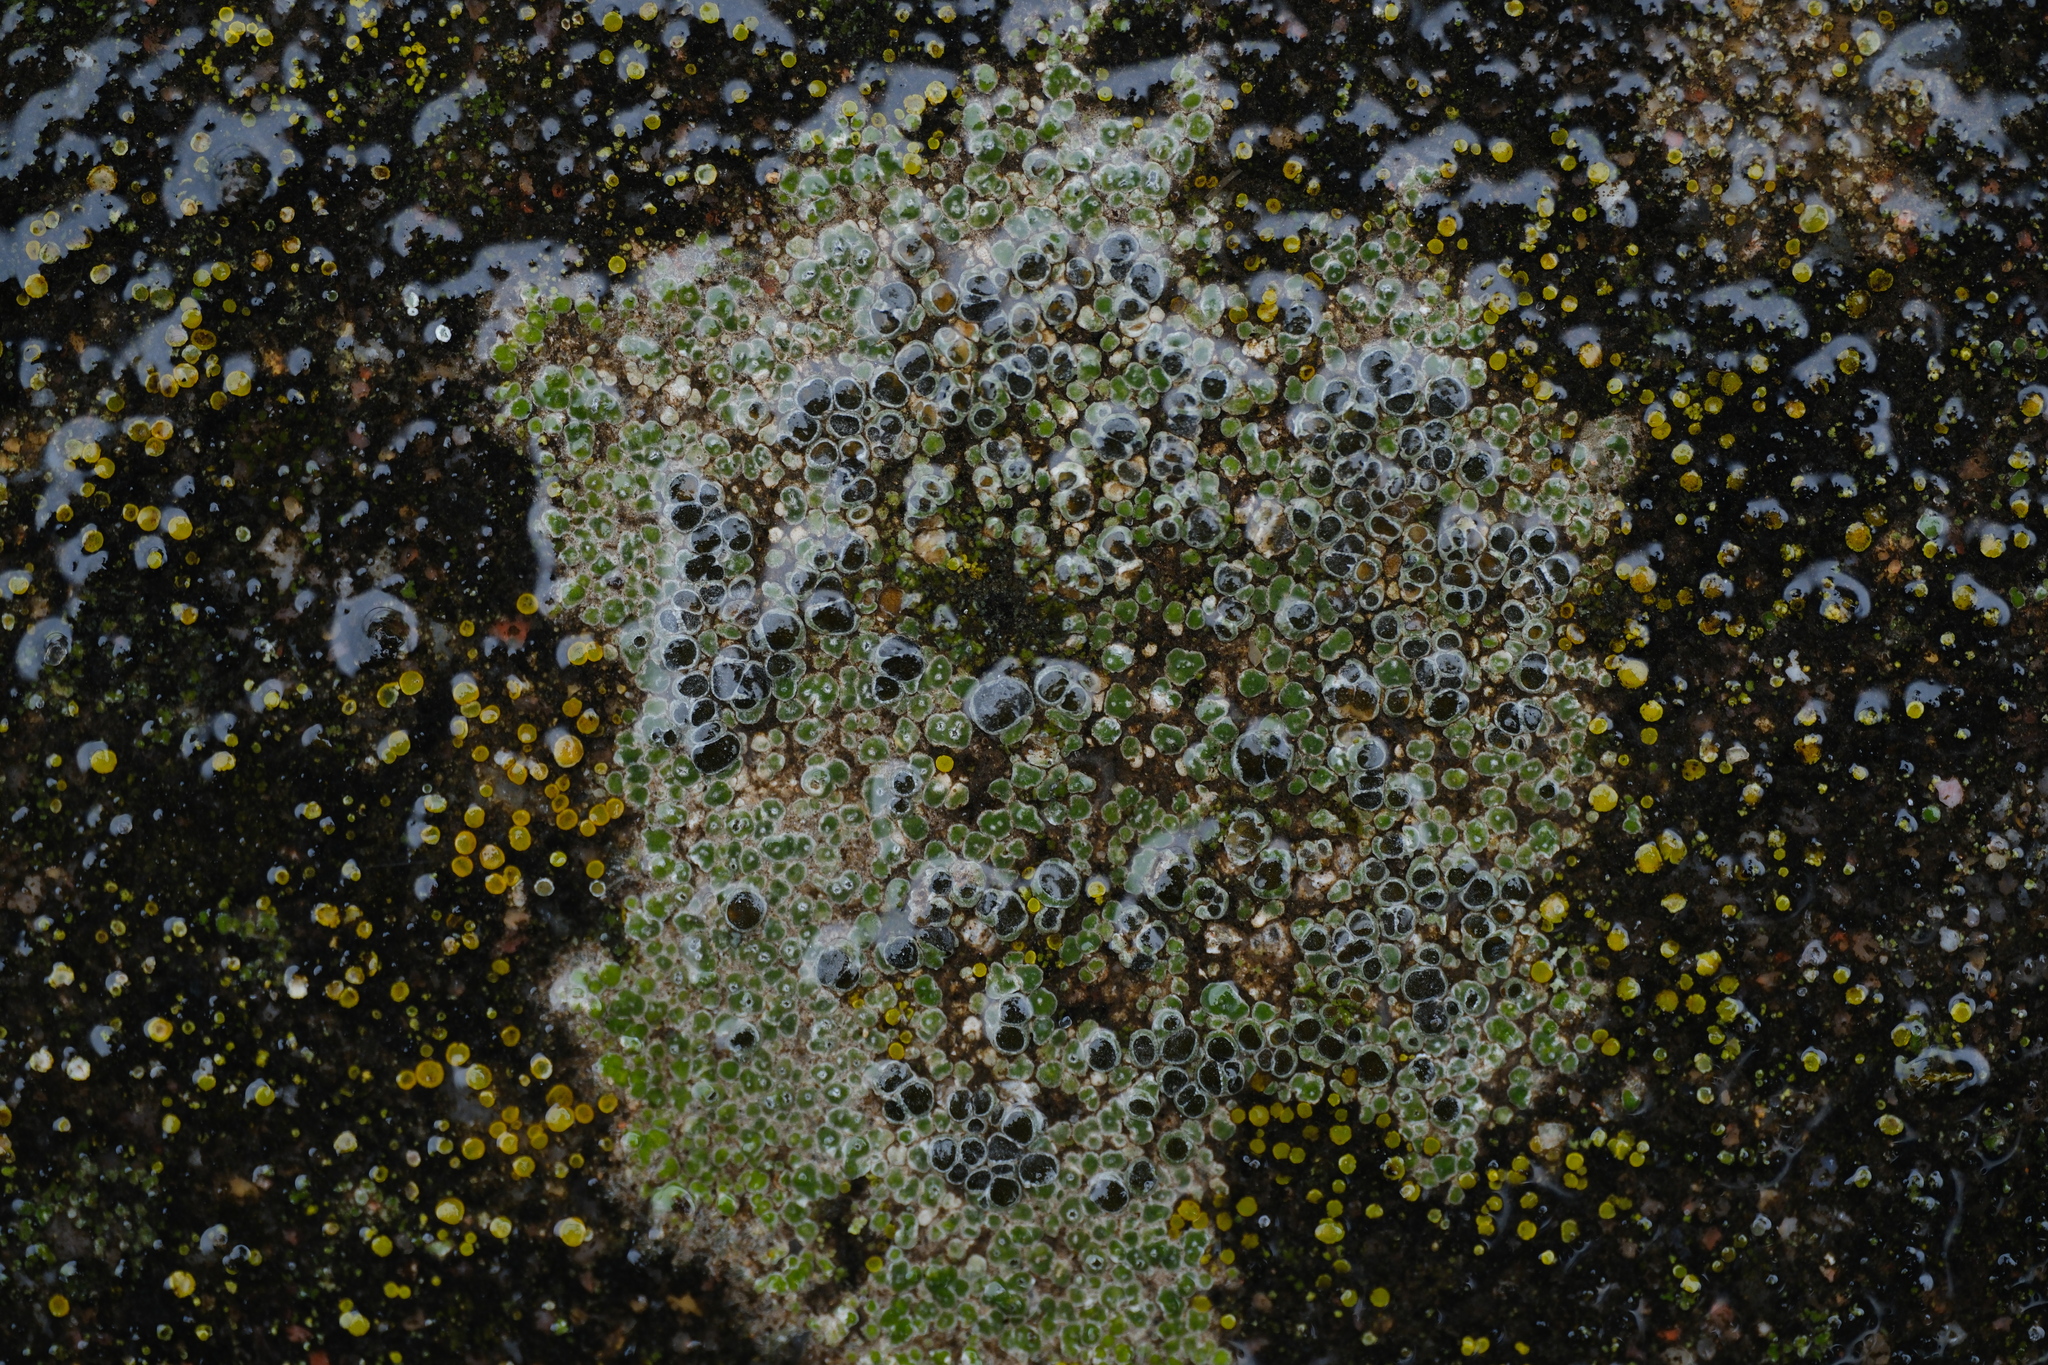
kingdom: Fungi
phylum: Ascomycota
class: Lecanoromycetes
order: Pertusariales
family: Megasporaceae
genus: Circinaria
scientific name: Circinaria contorta
